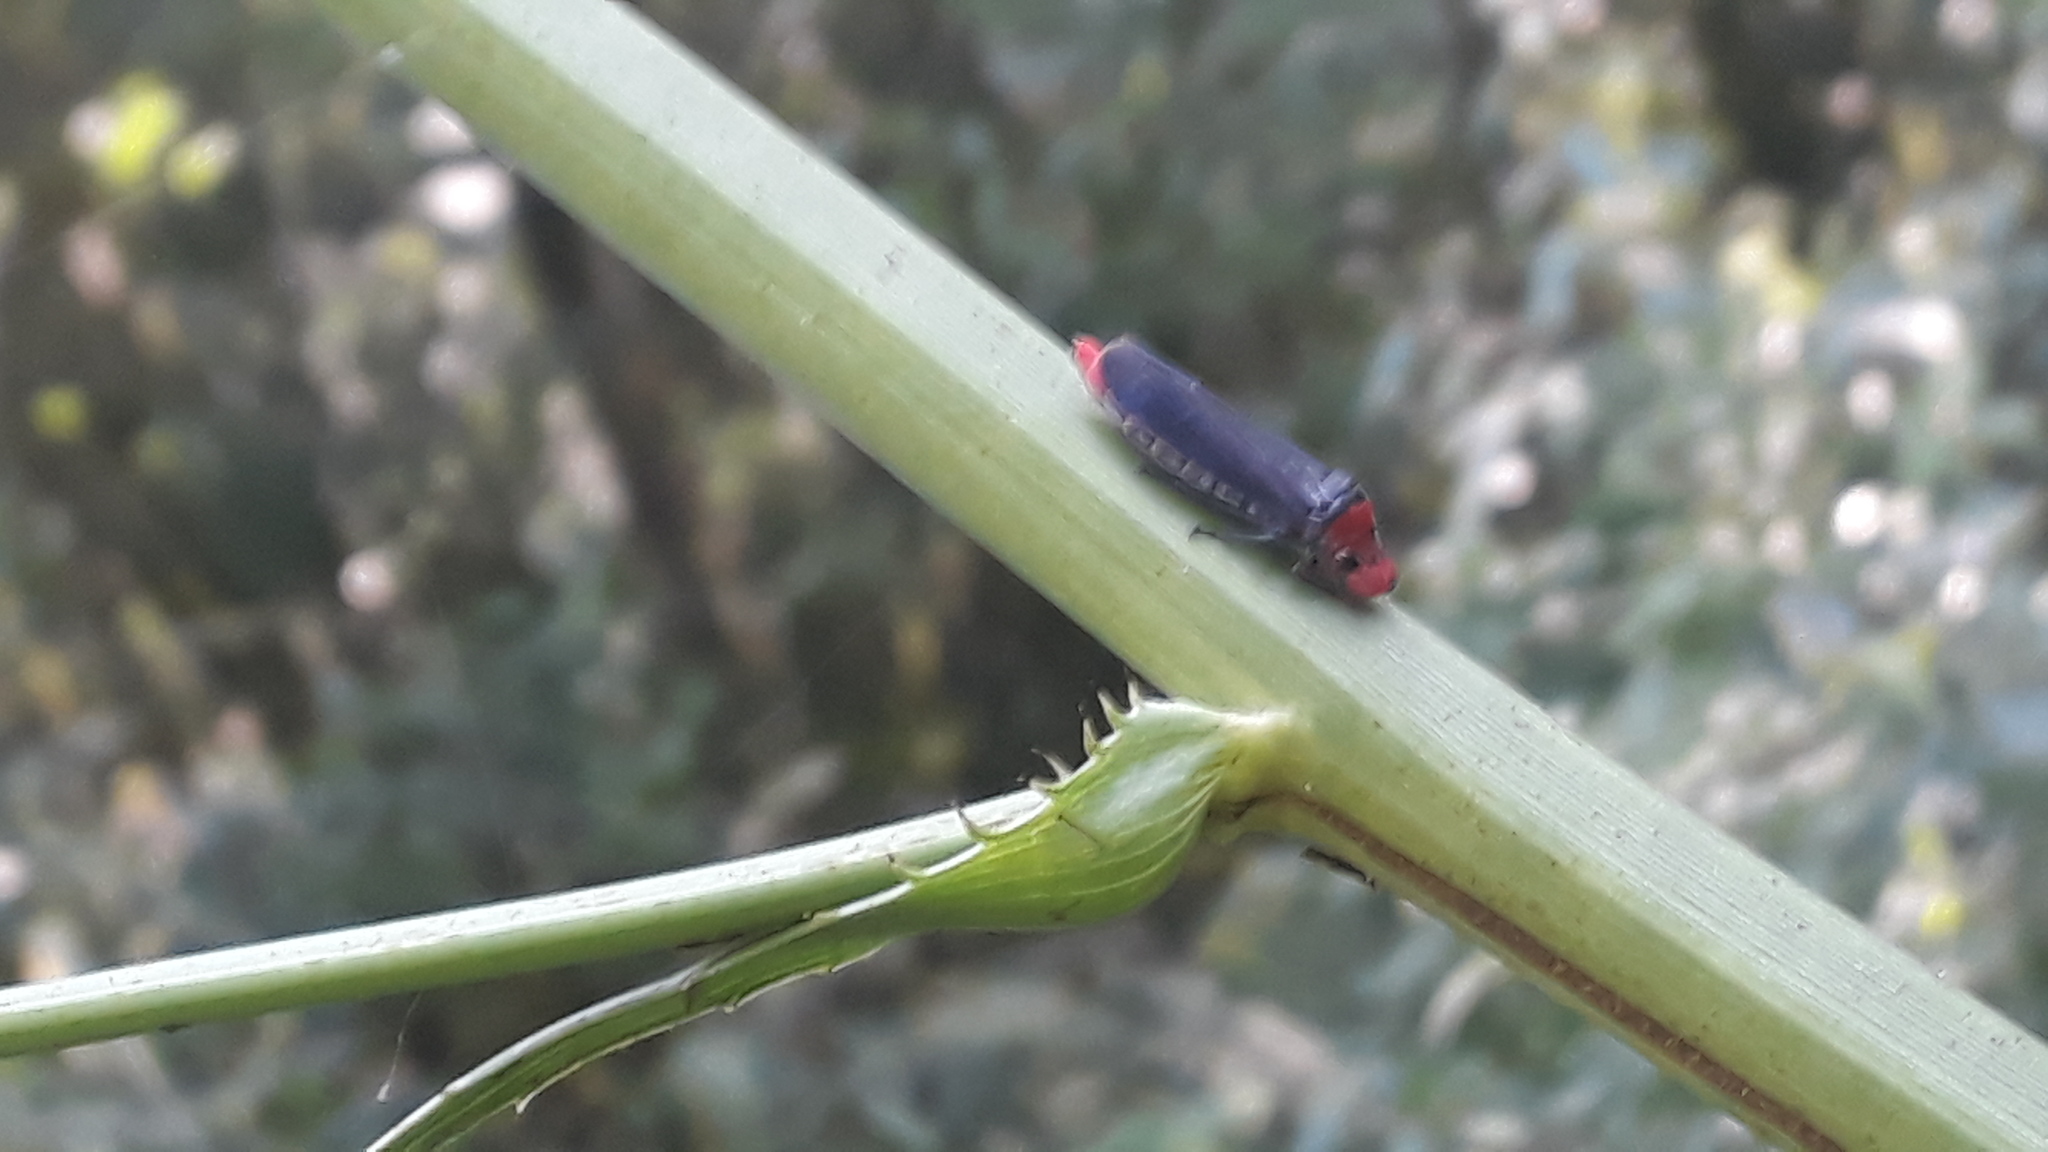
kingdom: Animalia
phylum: Arthropoda
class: Insecta
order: Hemiptera
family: Cicadellidae
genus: Aulacizes
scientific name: Aulacizes quadripunctata
